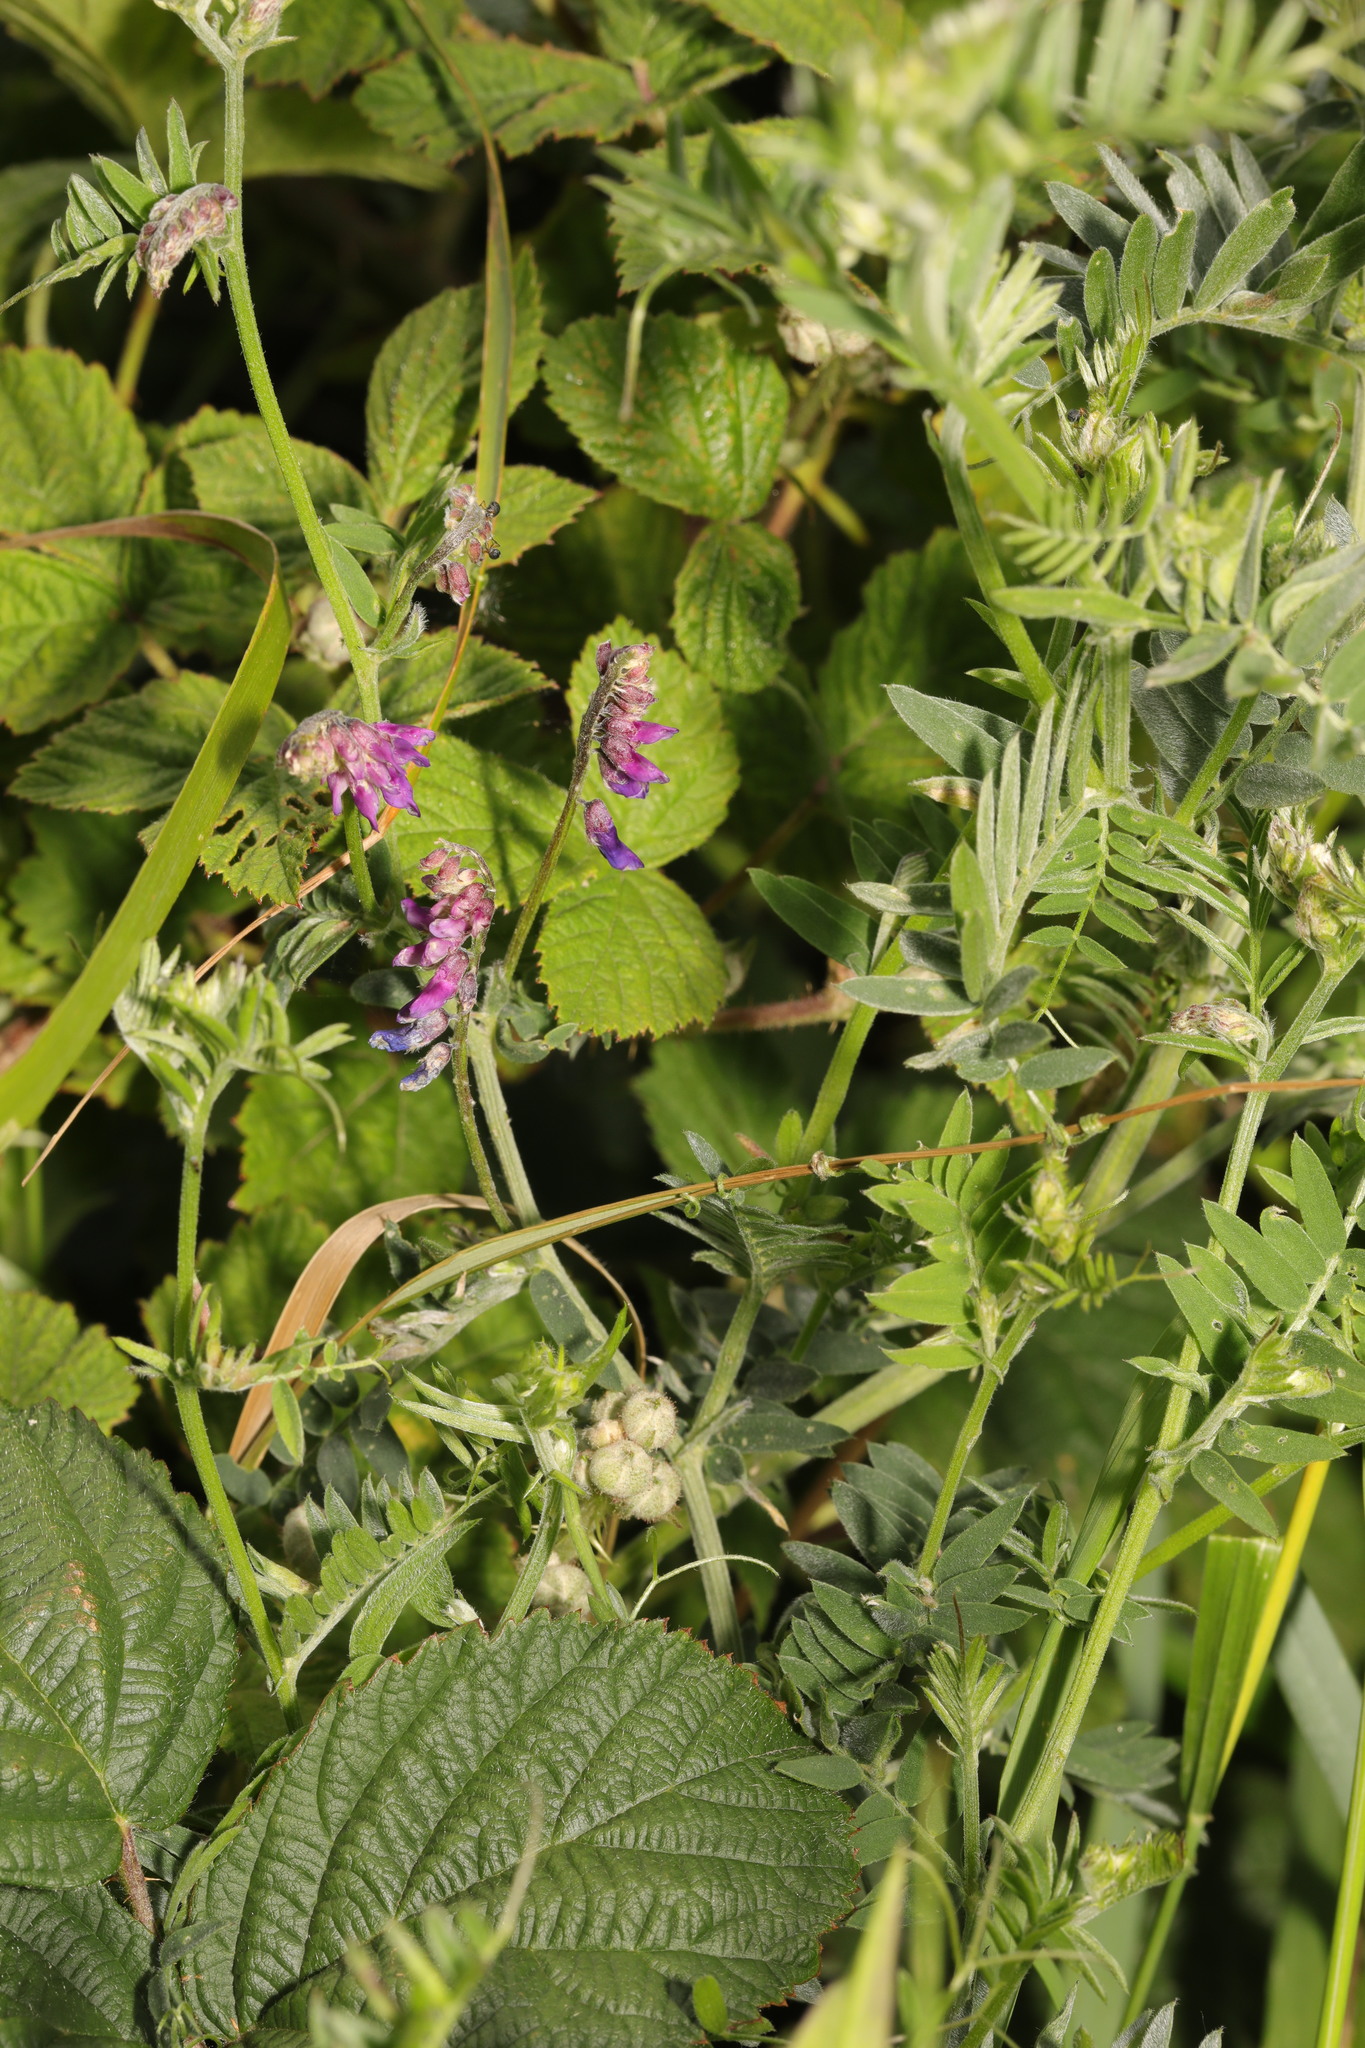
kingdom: Plantae
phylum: Tracheophyta
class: Magnoliopsida
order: Fabales
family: Fabaceae
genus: Vicia
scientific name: Vicia cracca
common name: Bird vetch
